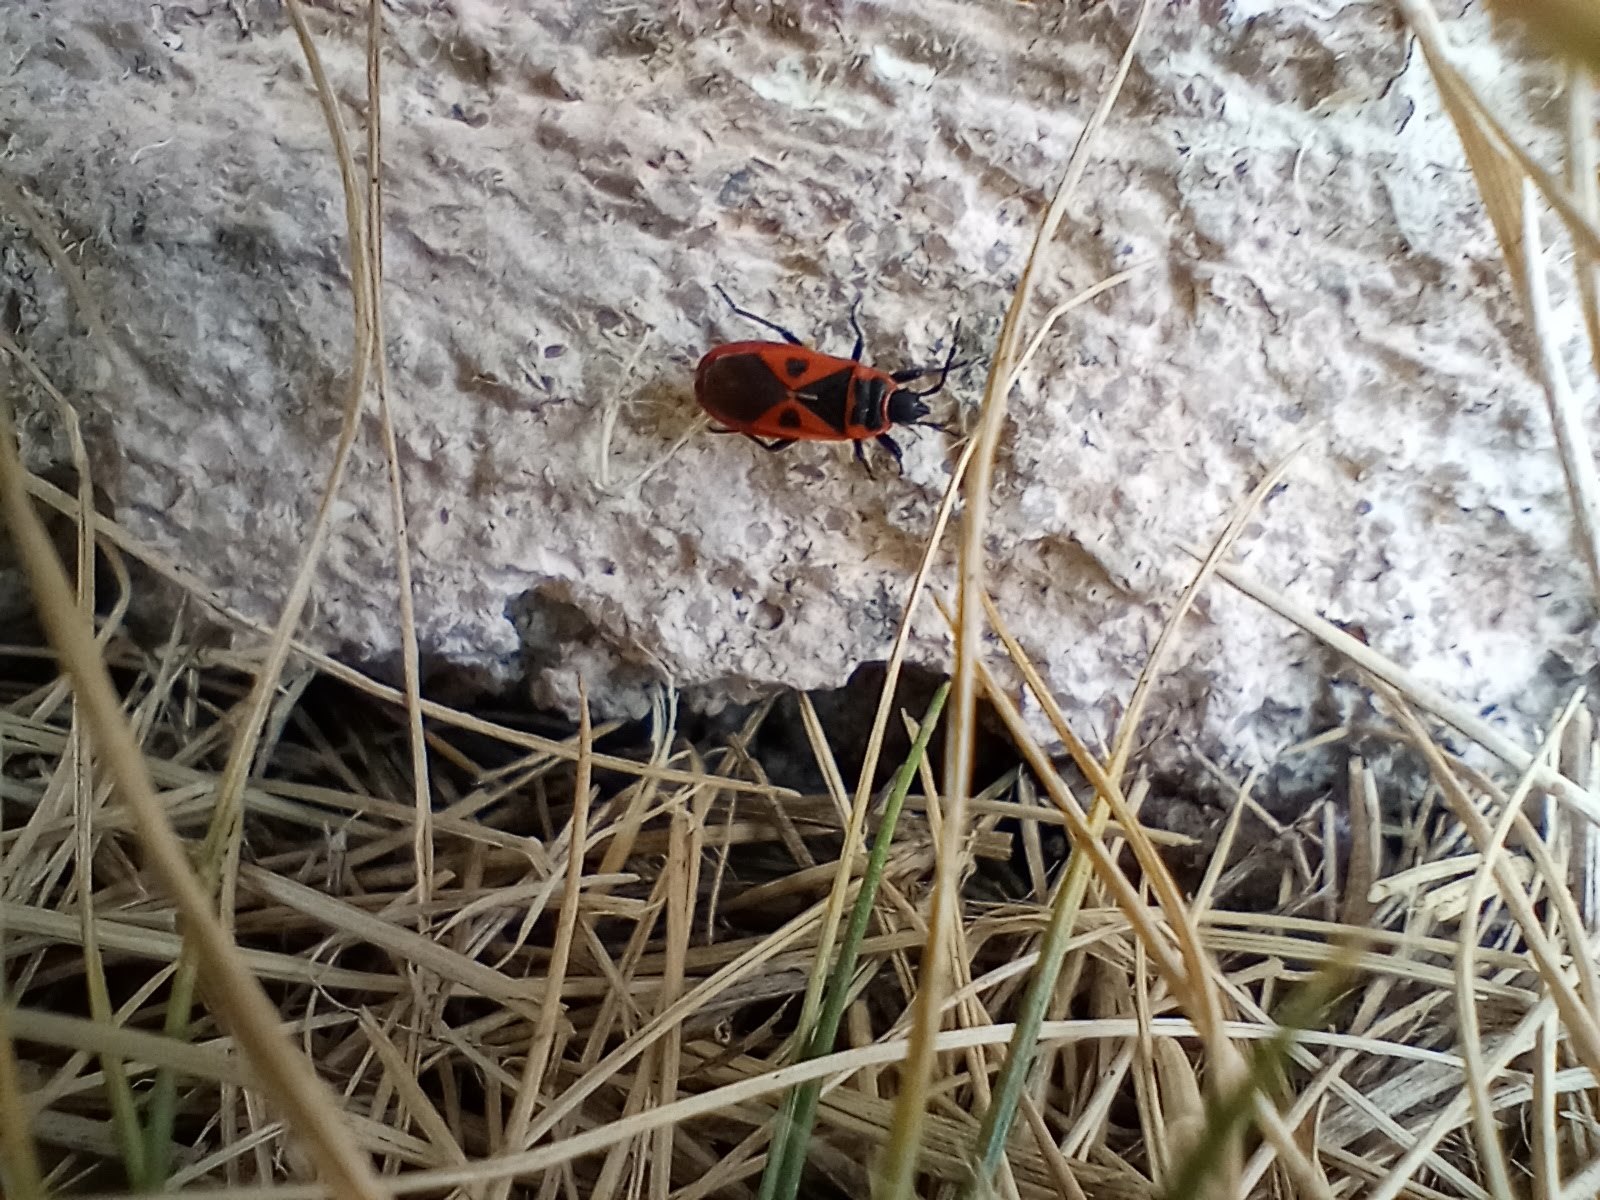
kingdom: Animalia
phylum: Arthropoda
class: Insecta
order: Hemiptera
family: Pyrrhocoridae
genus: Scantius
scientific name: Scantius aegyptius
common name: Red bug
